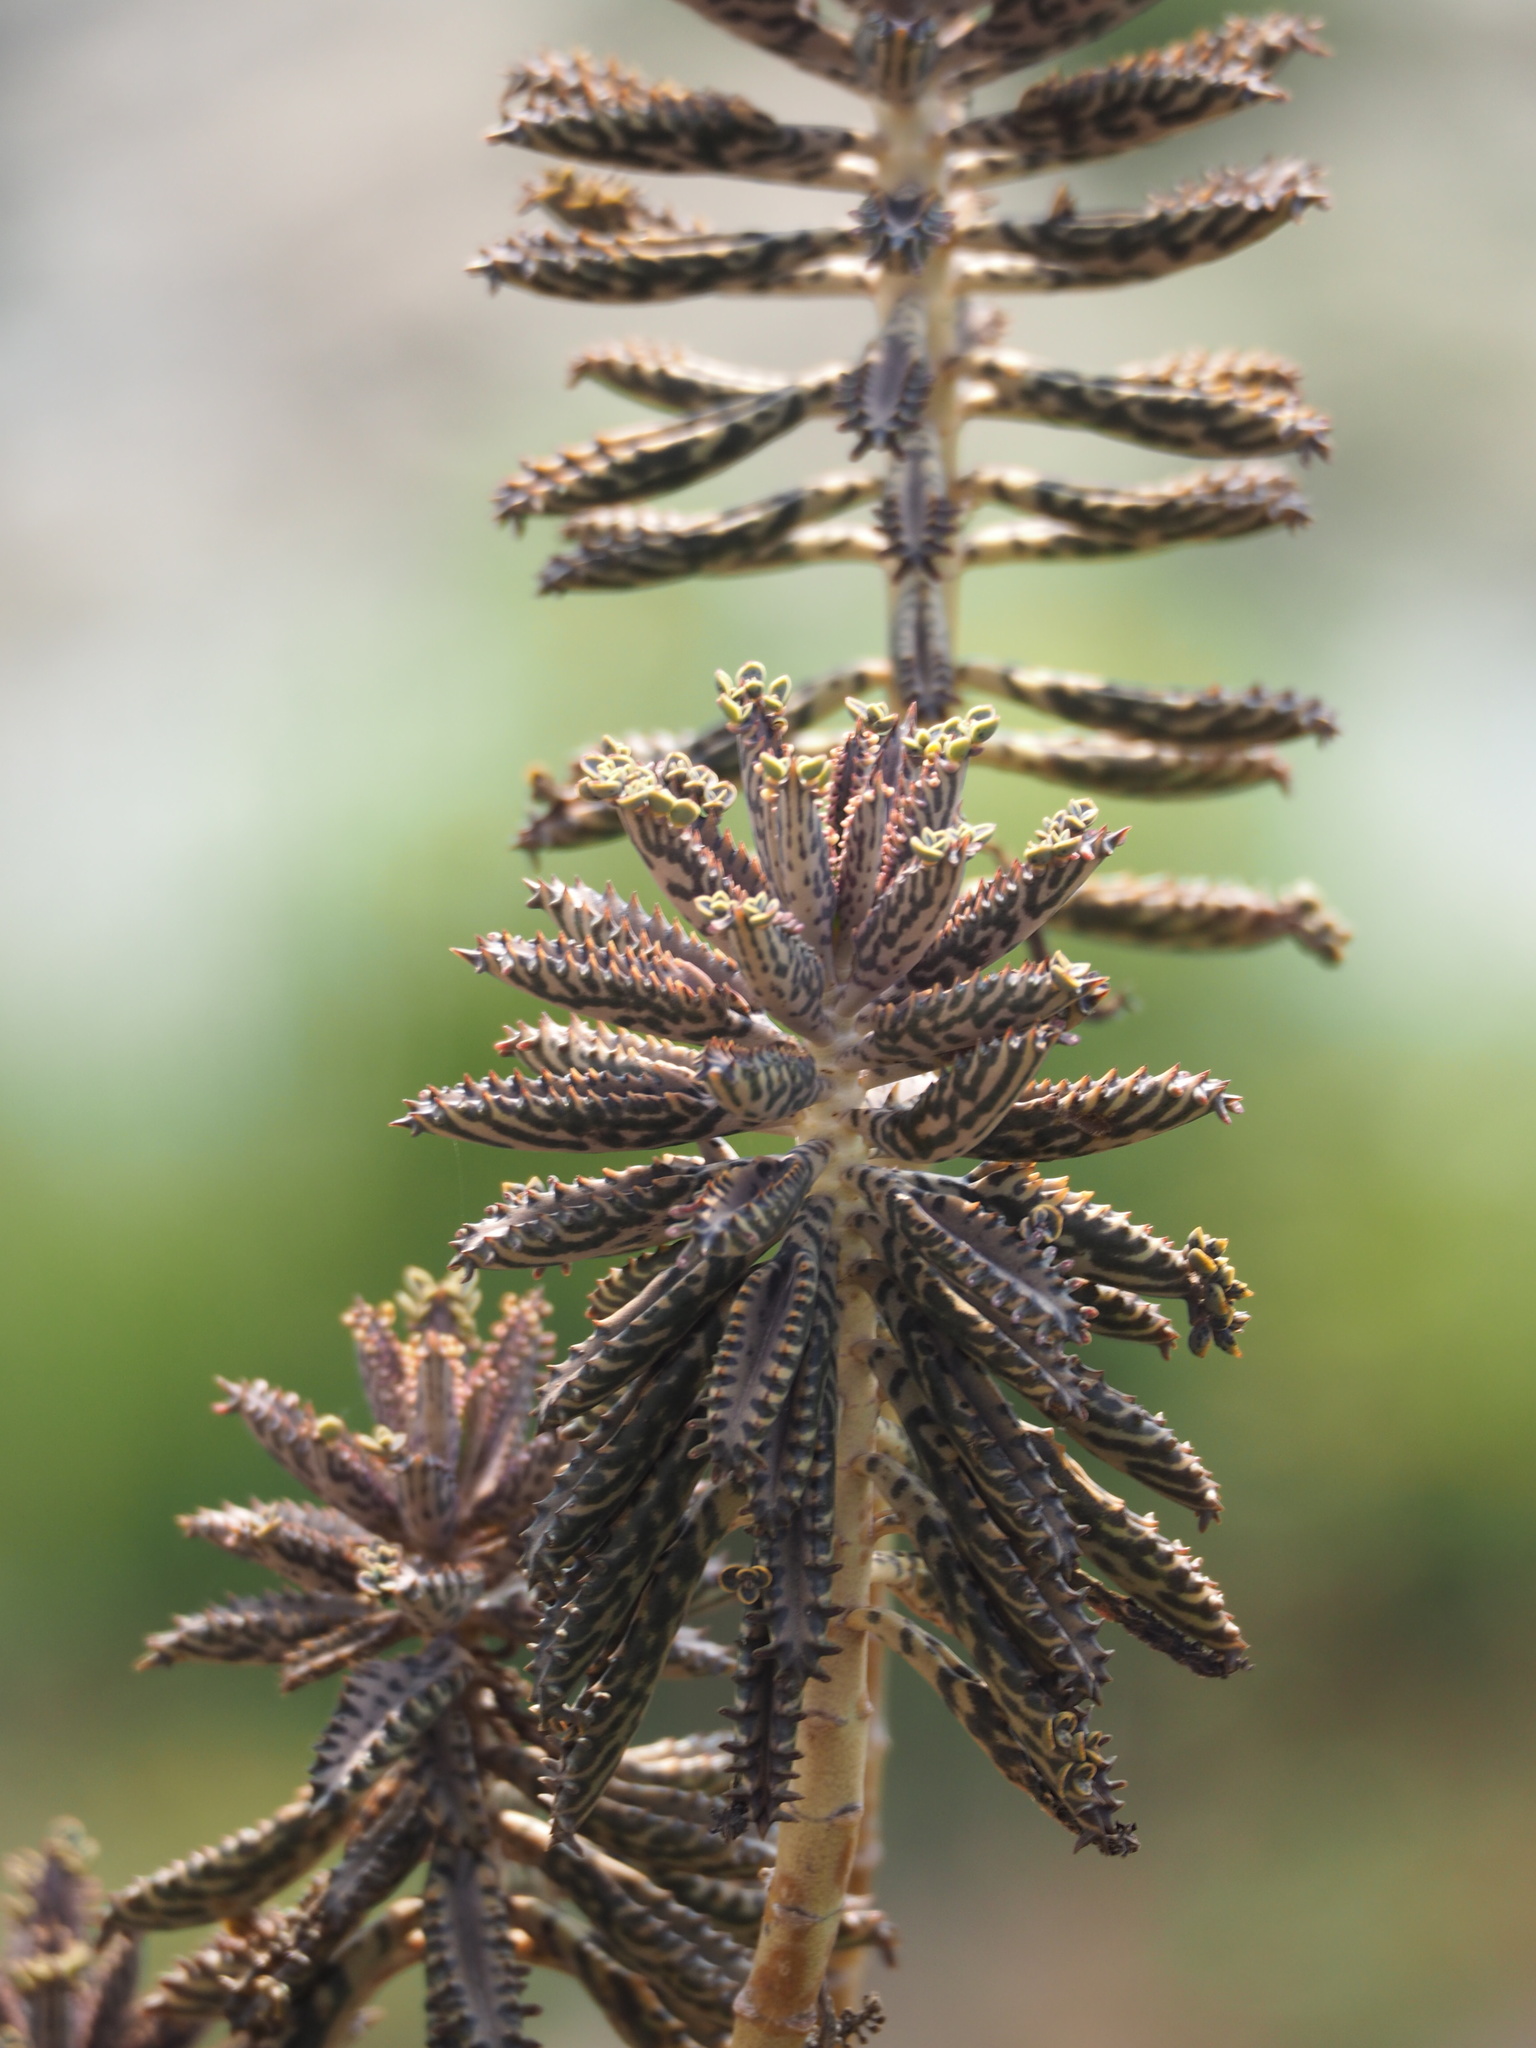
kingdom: Plantae
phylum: Tracheophyta
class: Magnoliopsida
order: Saxifragales
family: Crassulaceae
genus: Kalanchoe
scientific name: Kalanchoe houghtonii
